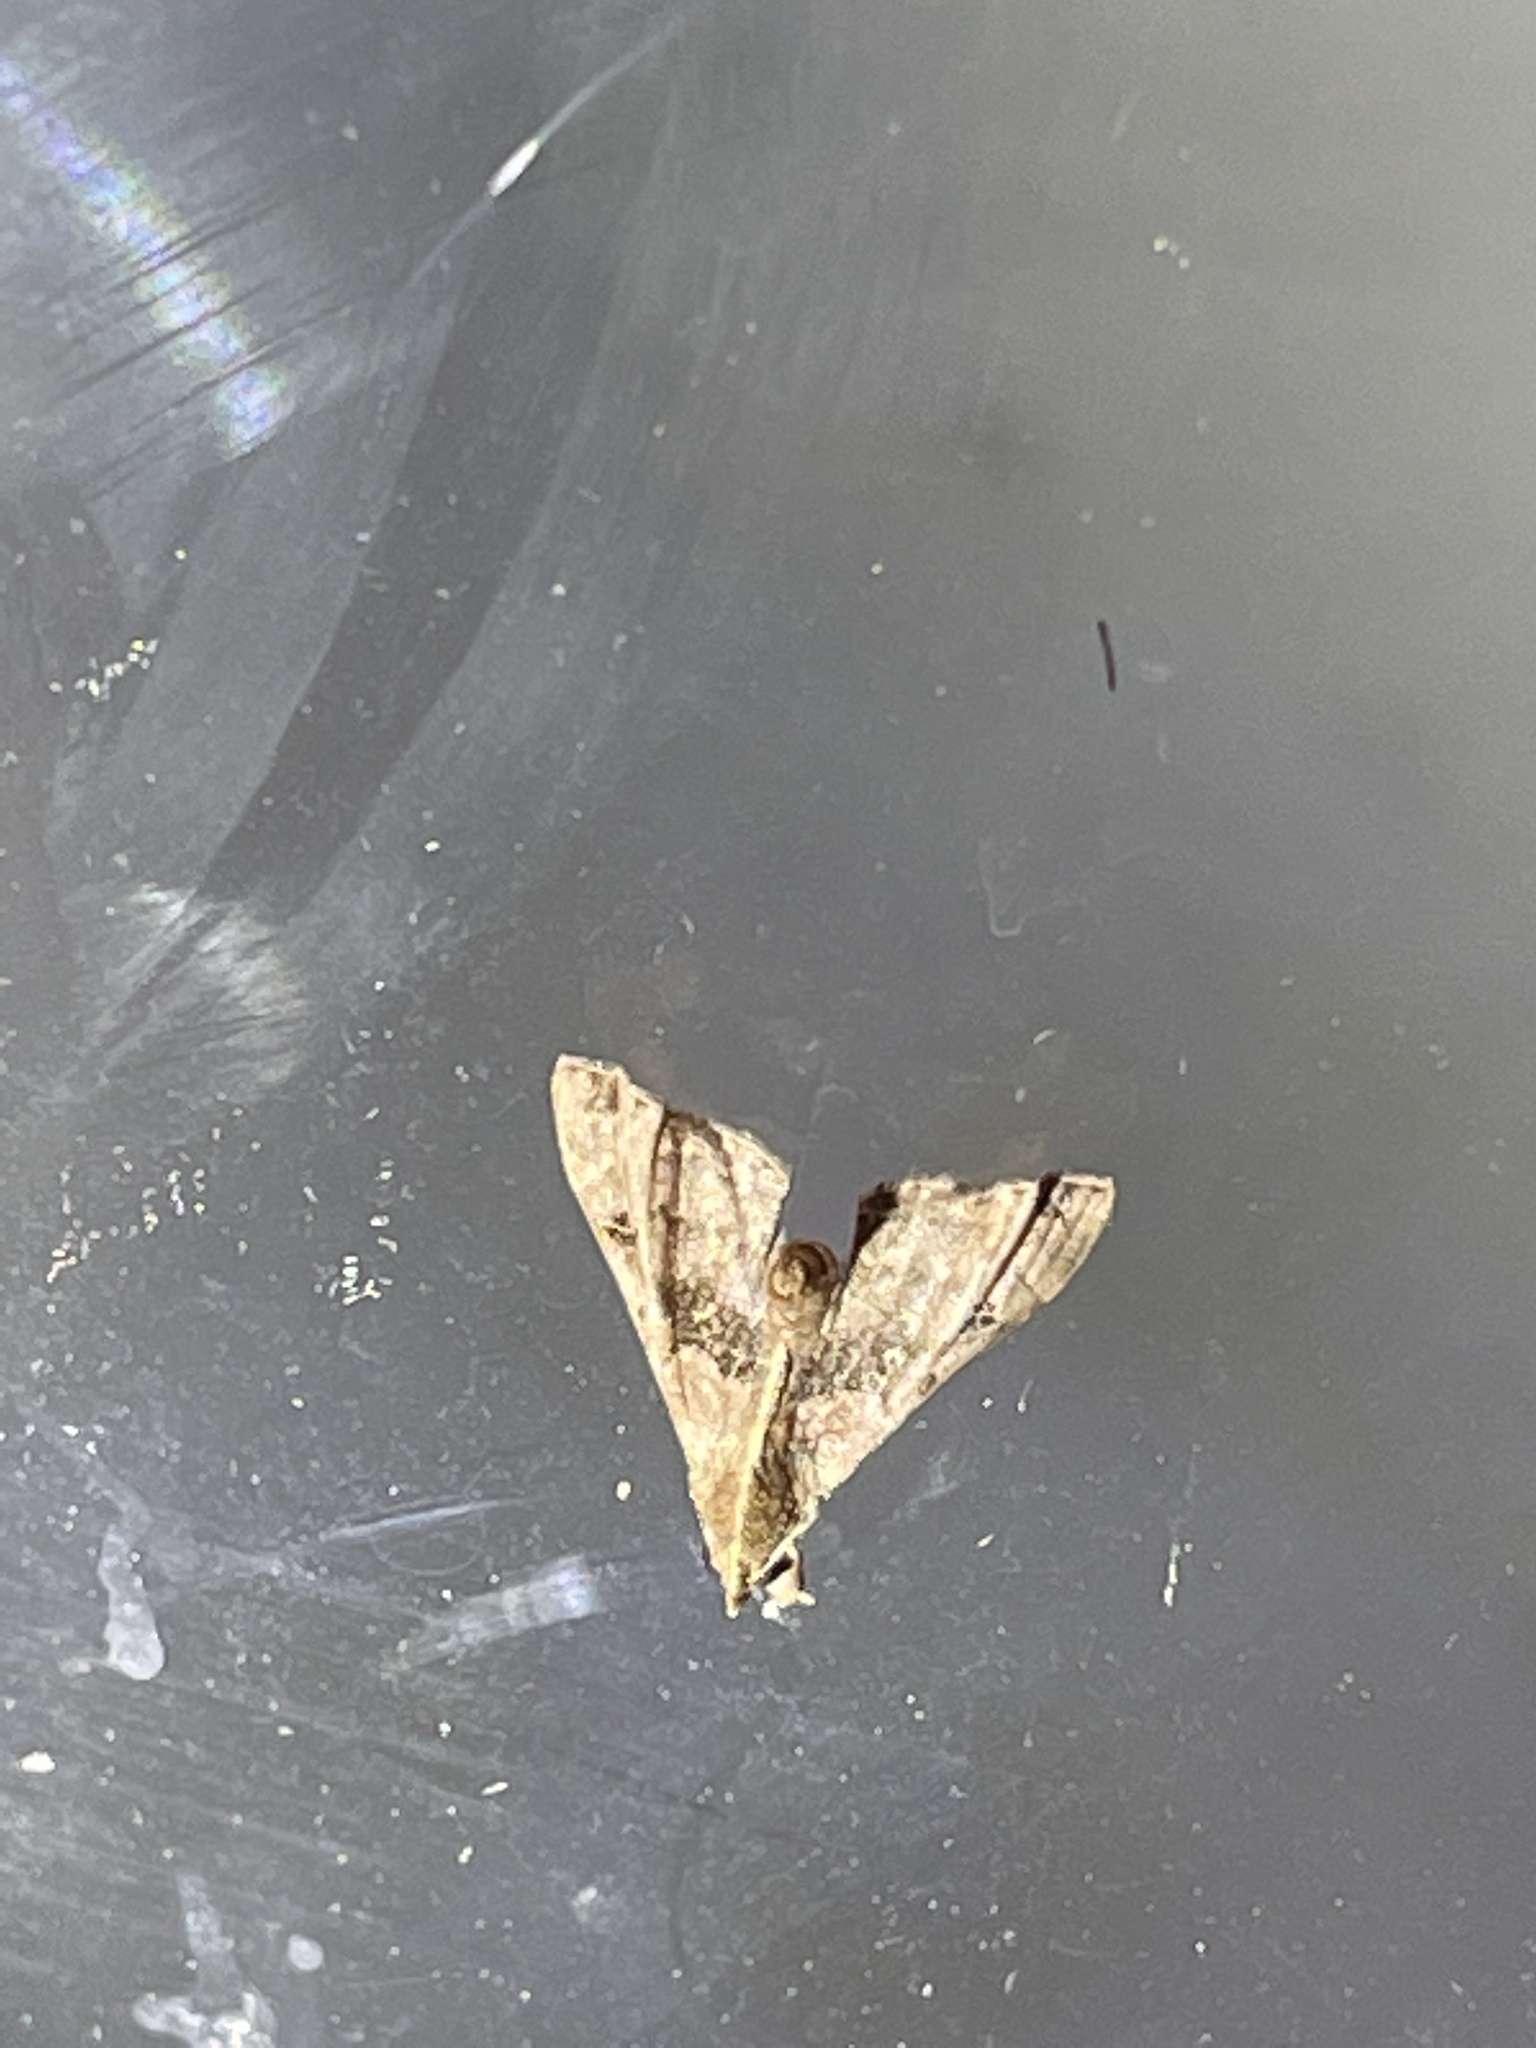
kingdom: Animalia
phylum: Arthropoda
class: Insecta
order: Lepidoptera
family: Erebidae
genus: Palthis
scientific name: Palthis asopialis
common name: Faint-spotted palthis moth
